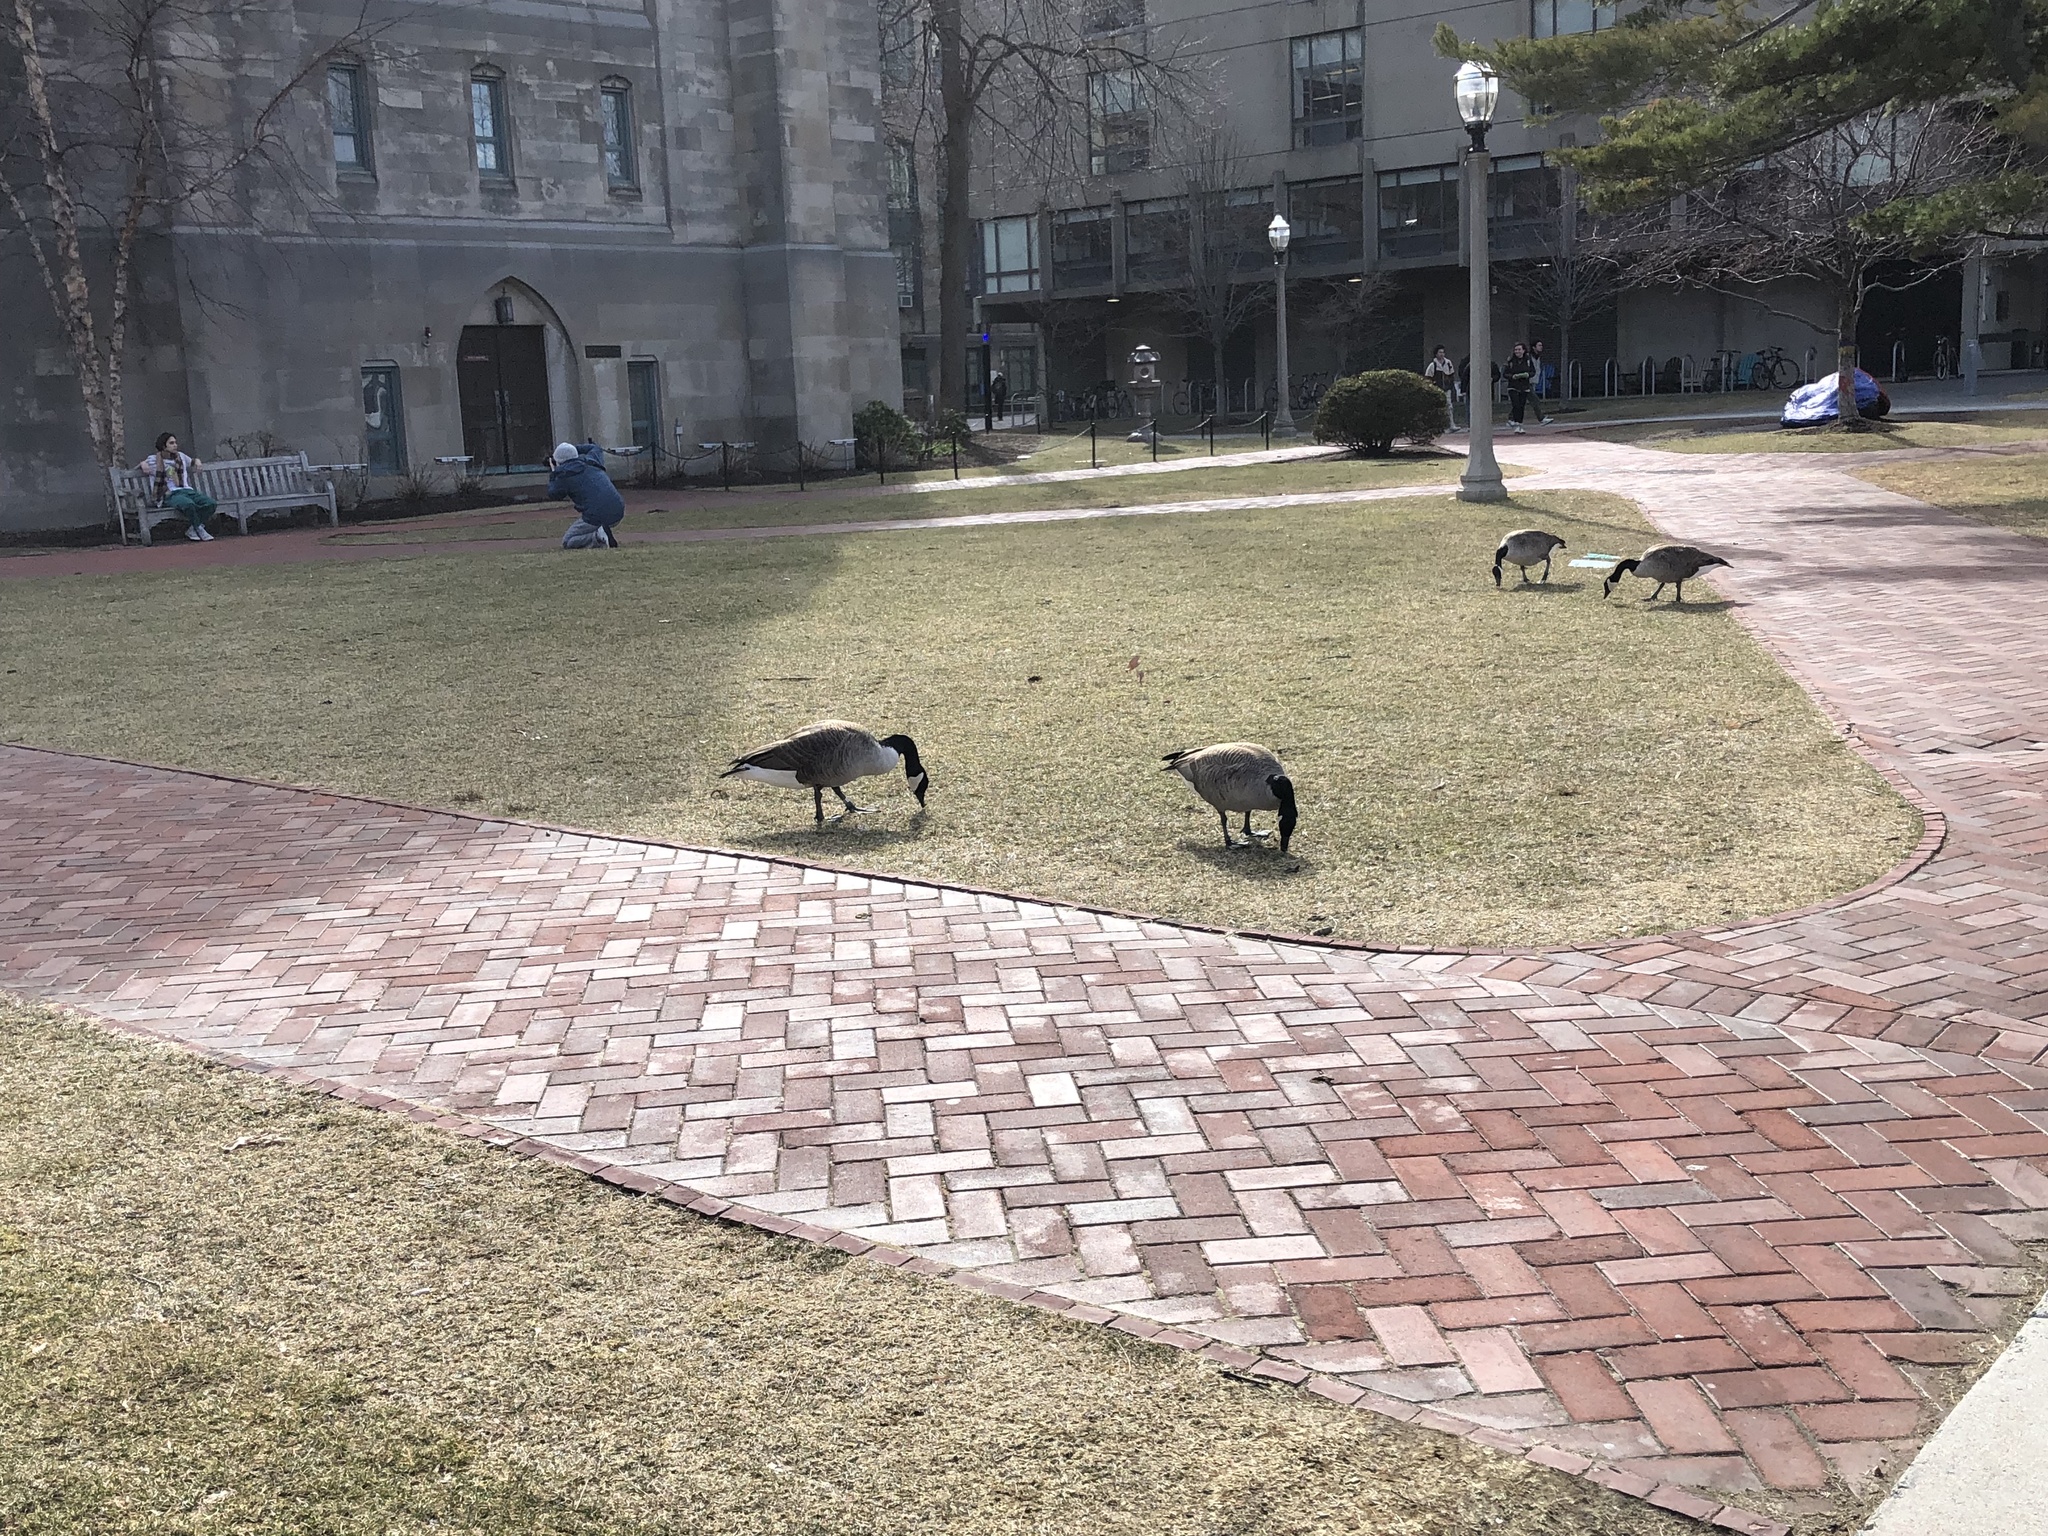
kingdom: Animalia
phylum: Chordata
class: Aves
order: Anseriformes
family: Anatidae
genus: Branta
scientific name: Branta canadensis
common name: Canada goose
